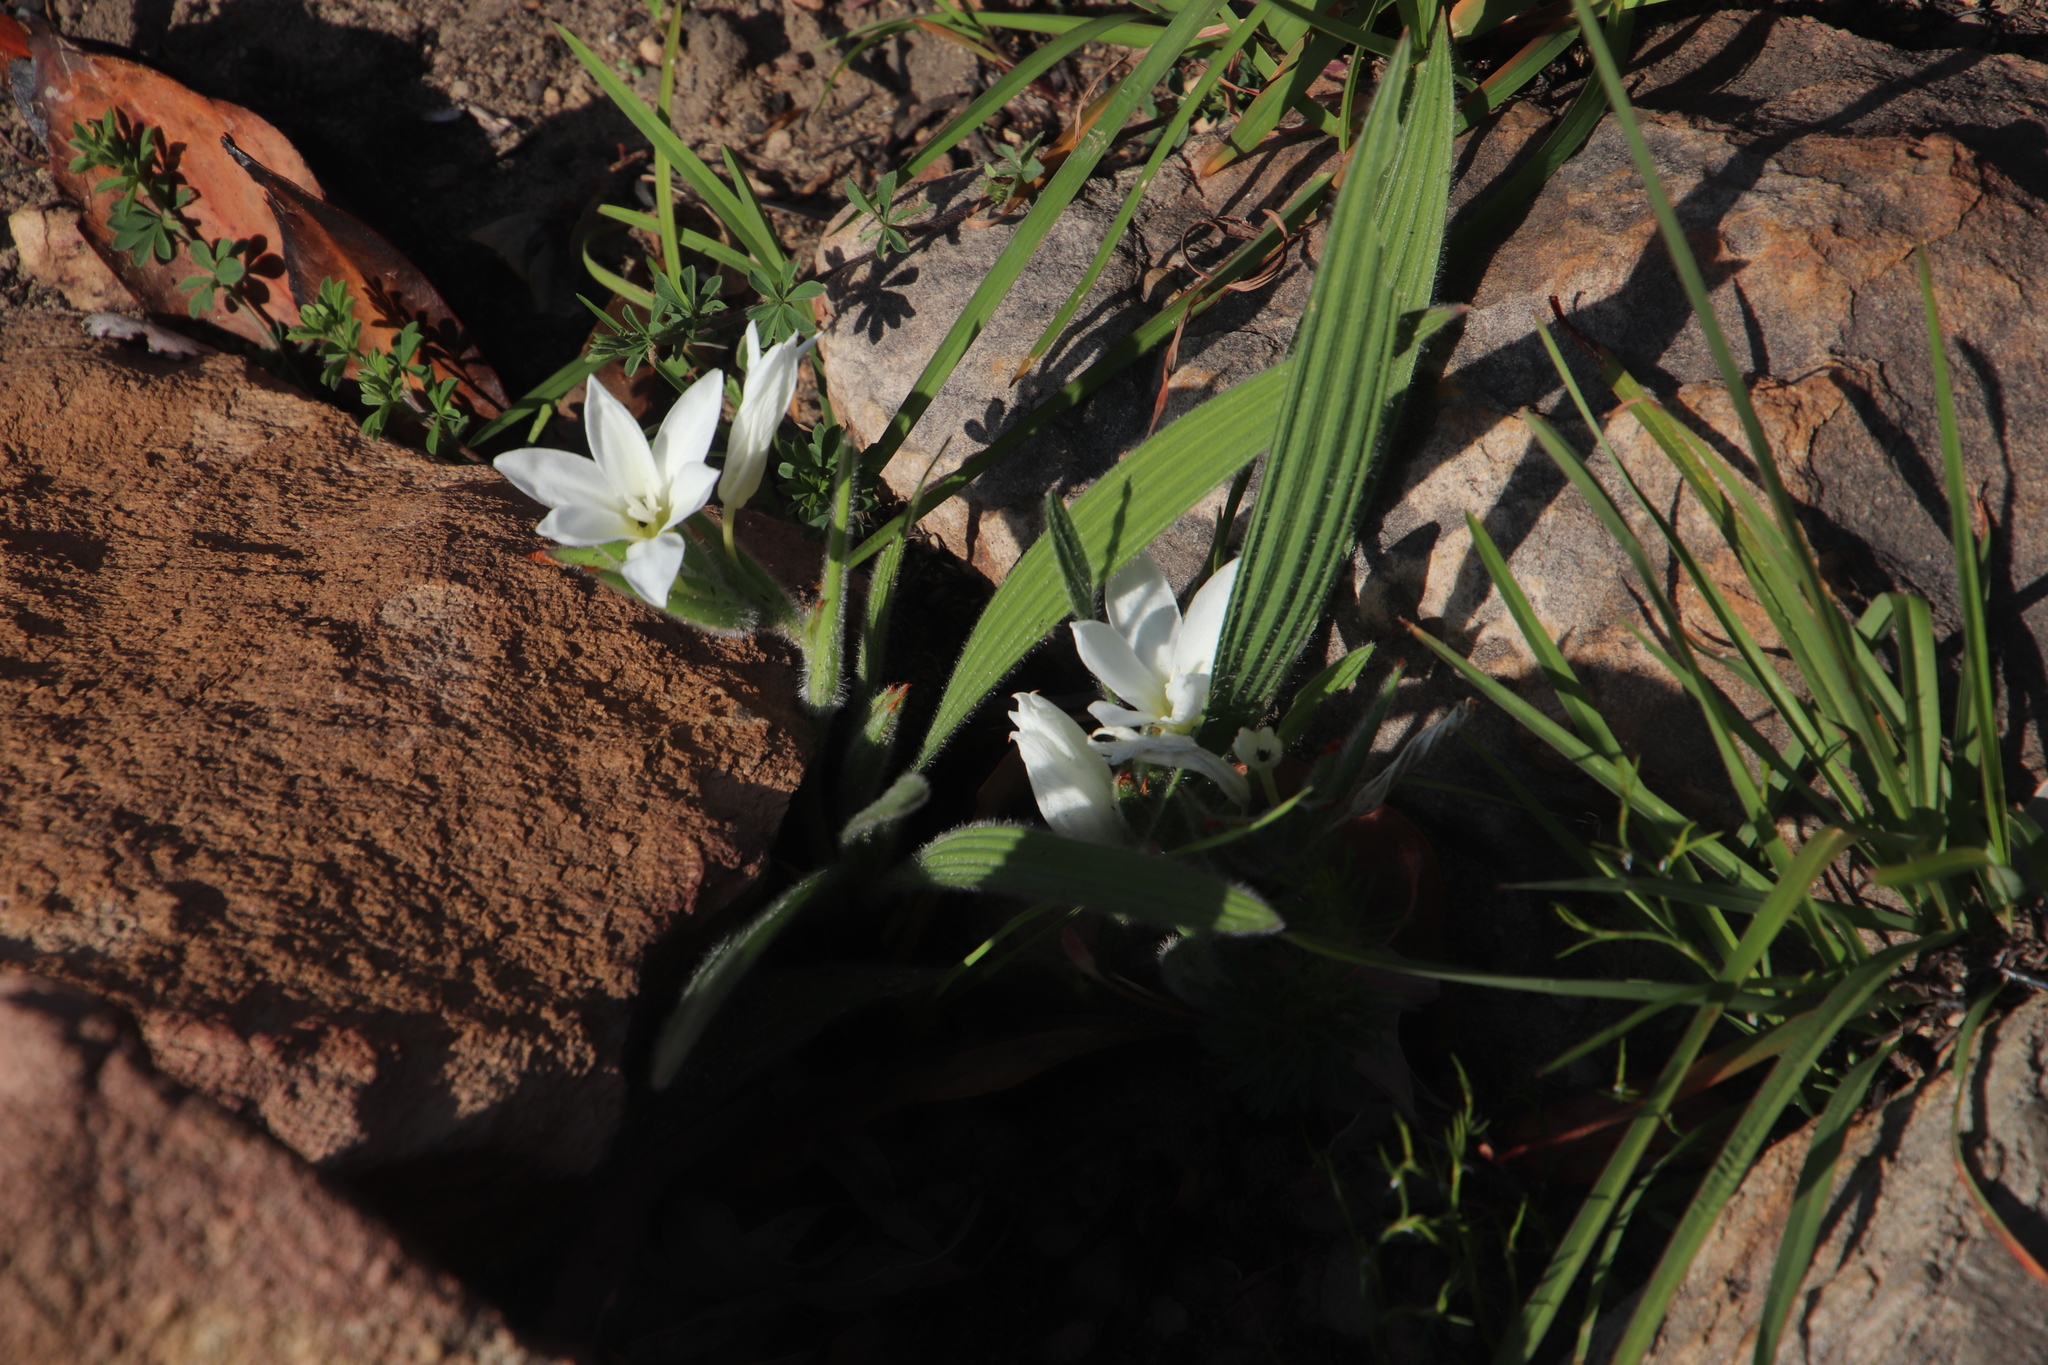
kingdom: Plantae
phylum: Tracheophyta
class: Liliopsida
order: Asparagales
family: Iridaceae
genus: Babiana
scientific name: Babiana villosula
